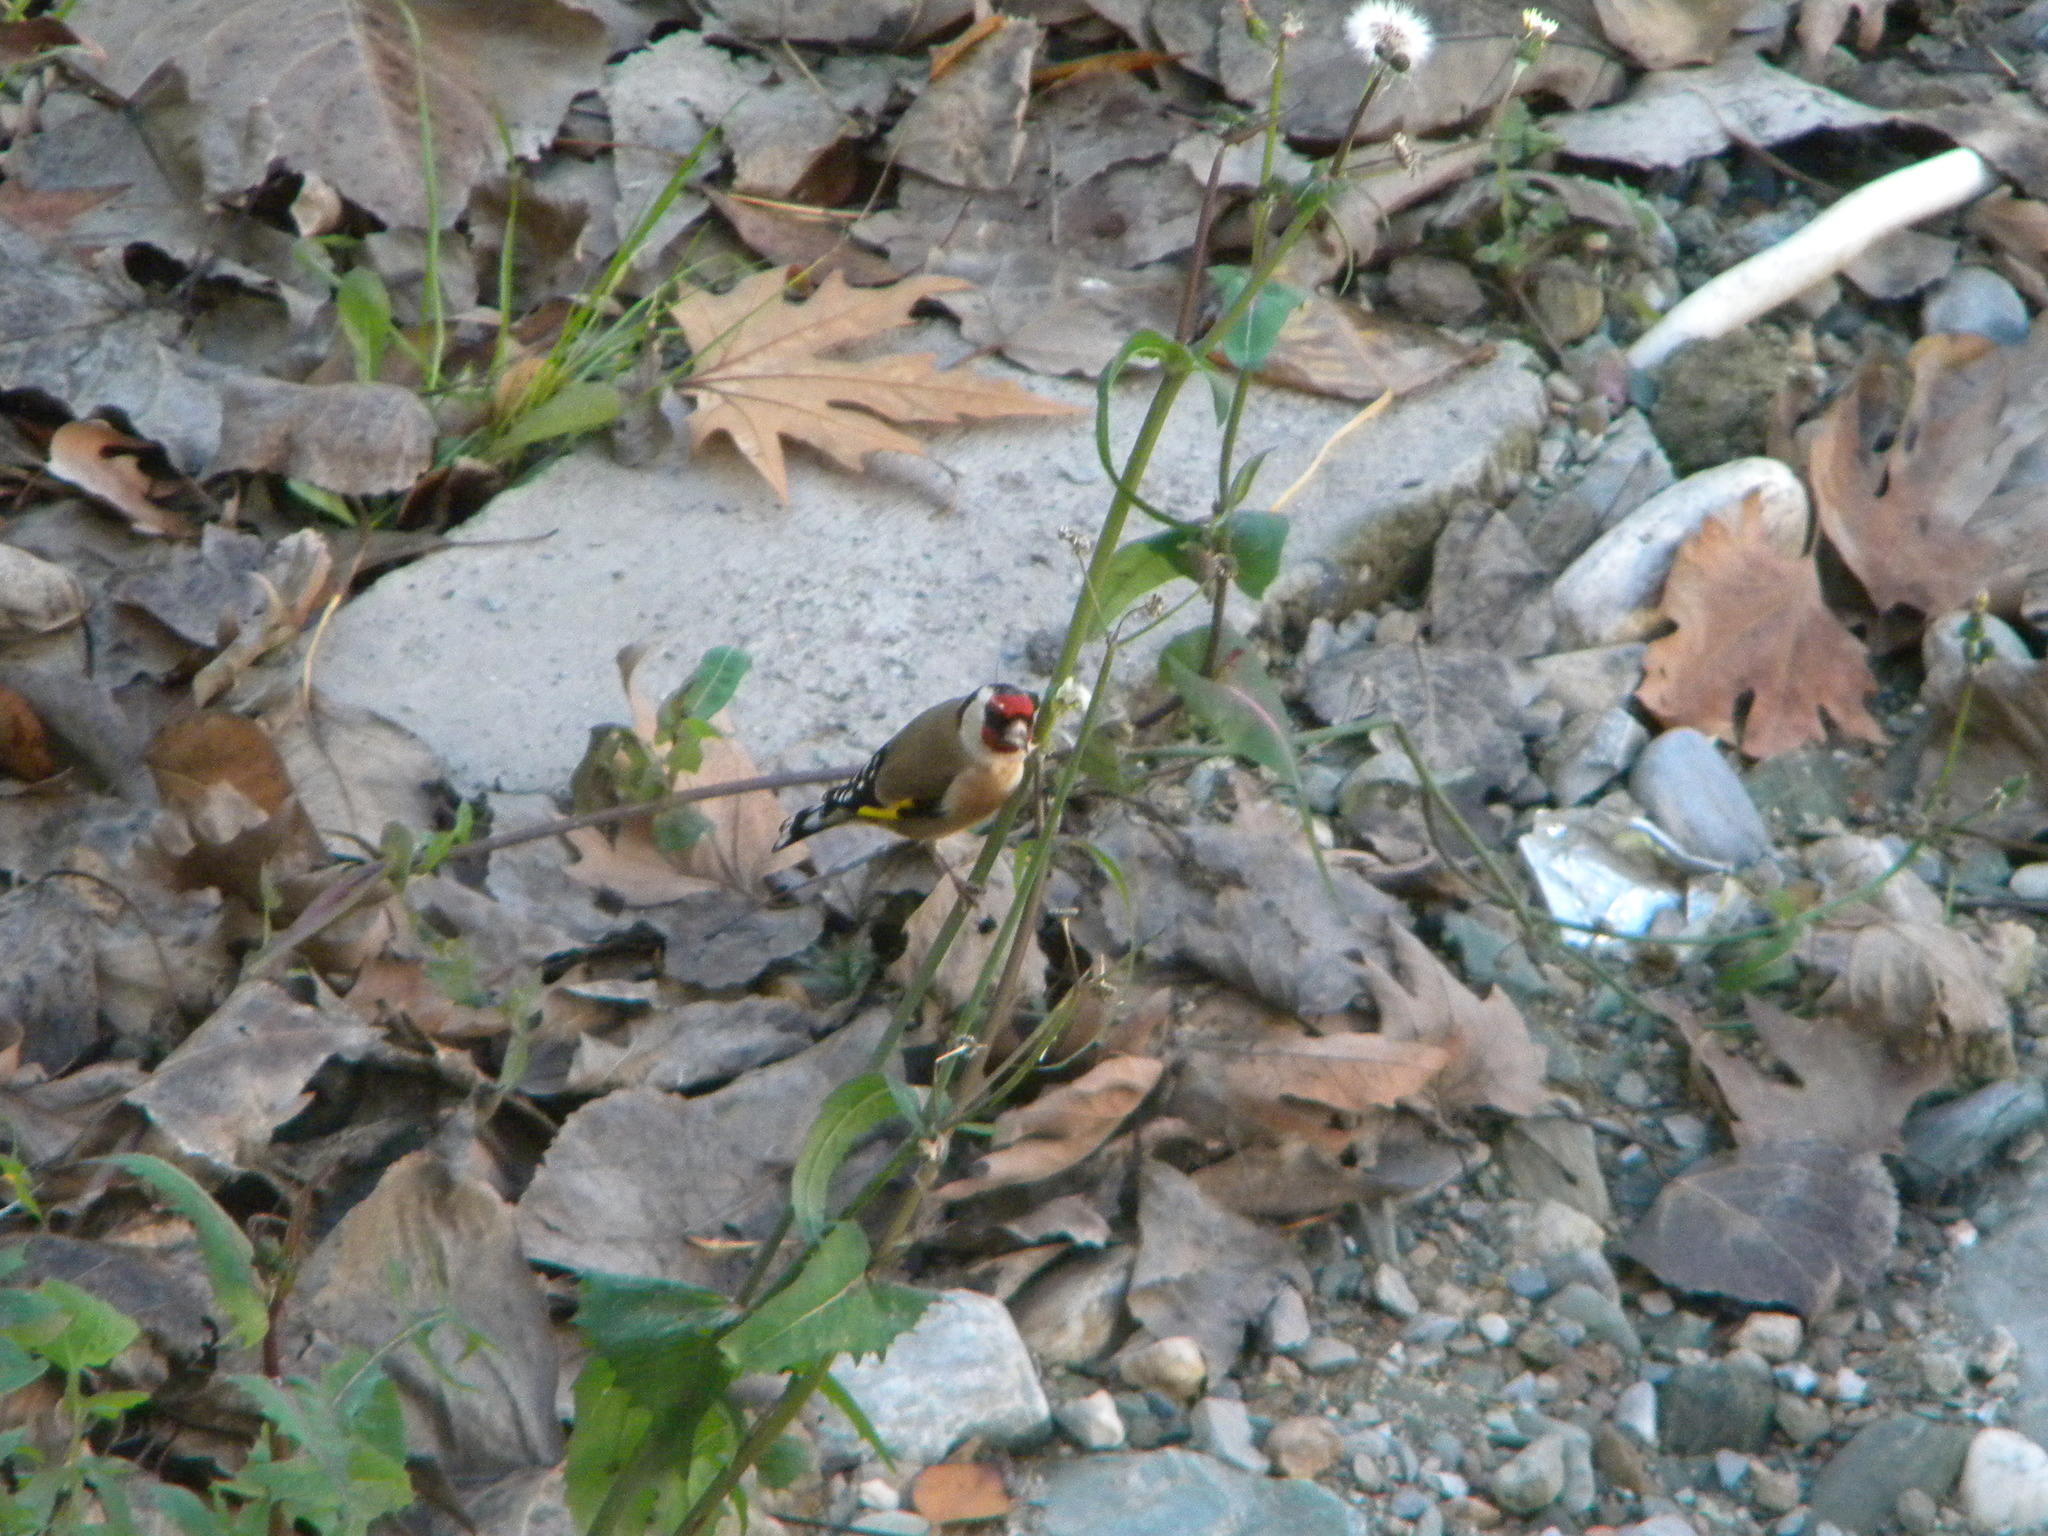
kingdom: Animalia
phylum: Chordata
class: Aves
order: Passeriformes
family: Fringillidae
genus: Carduelis
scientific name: Carduelis carduelis
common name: European goldfinch
